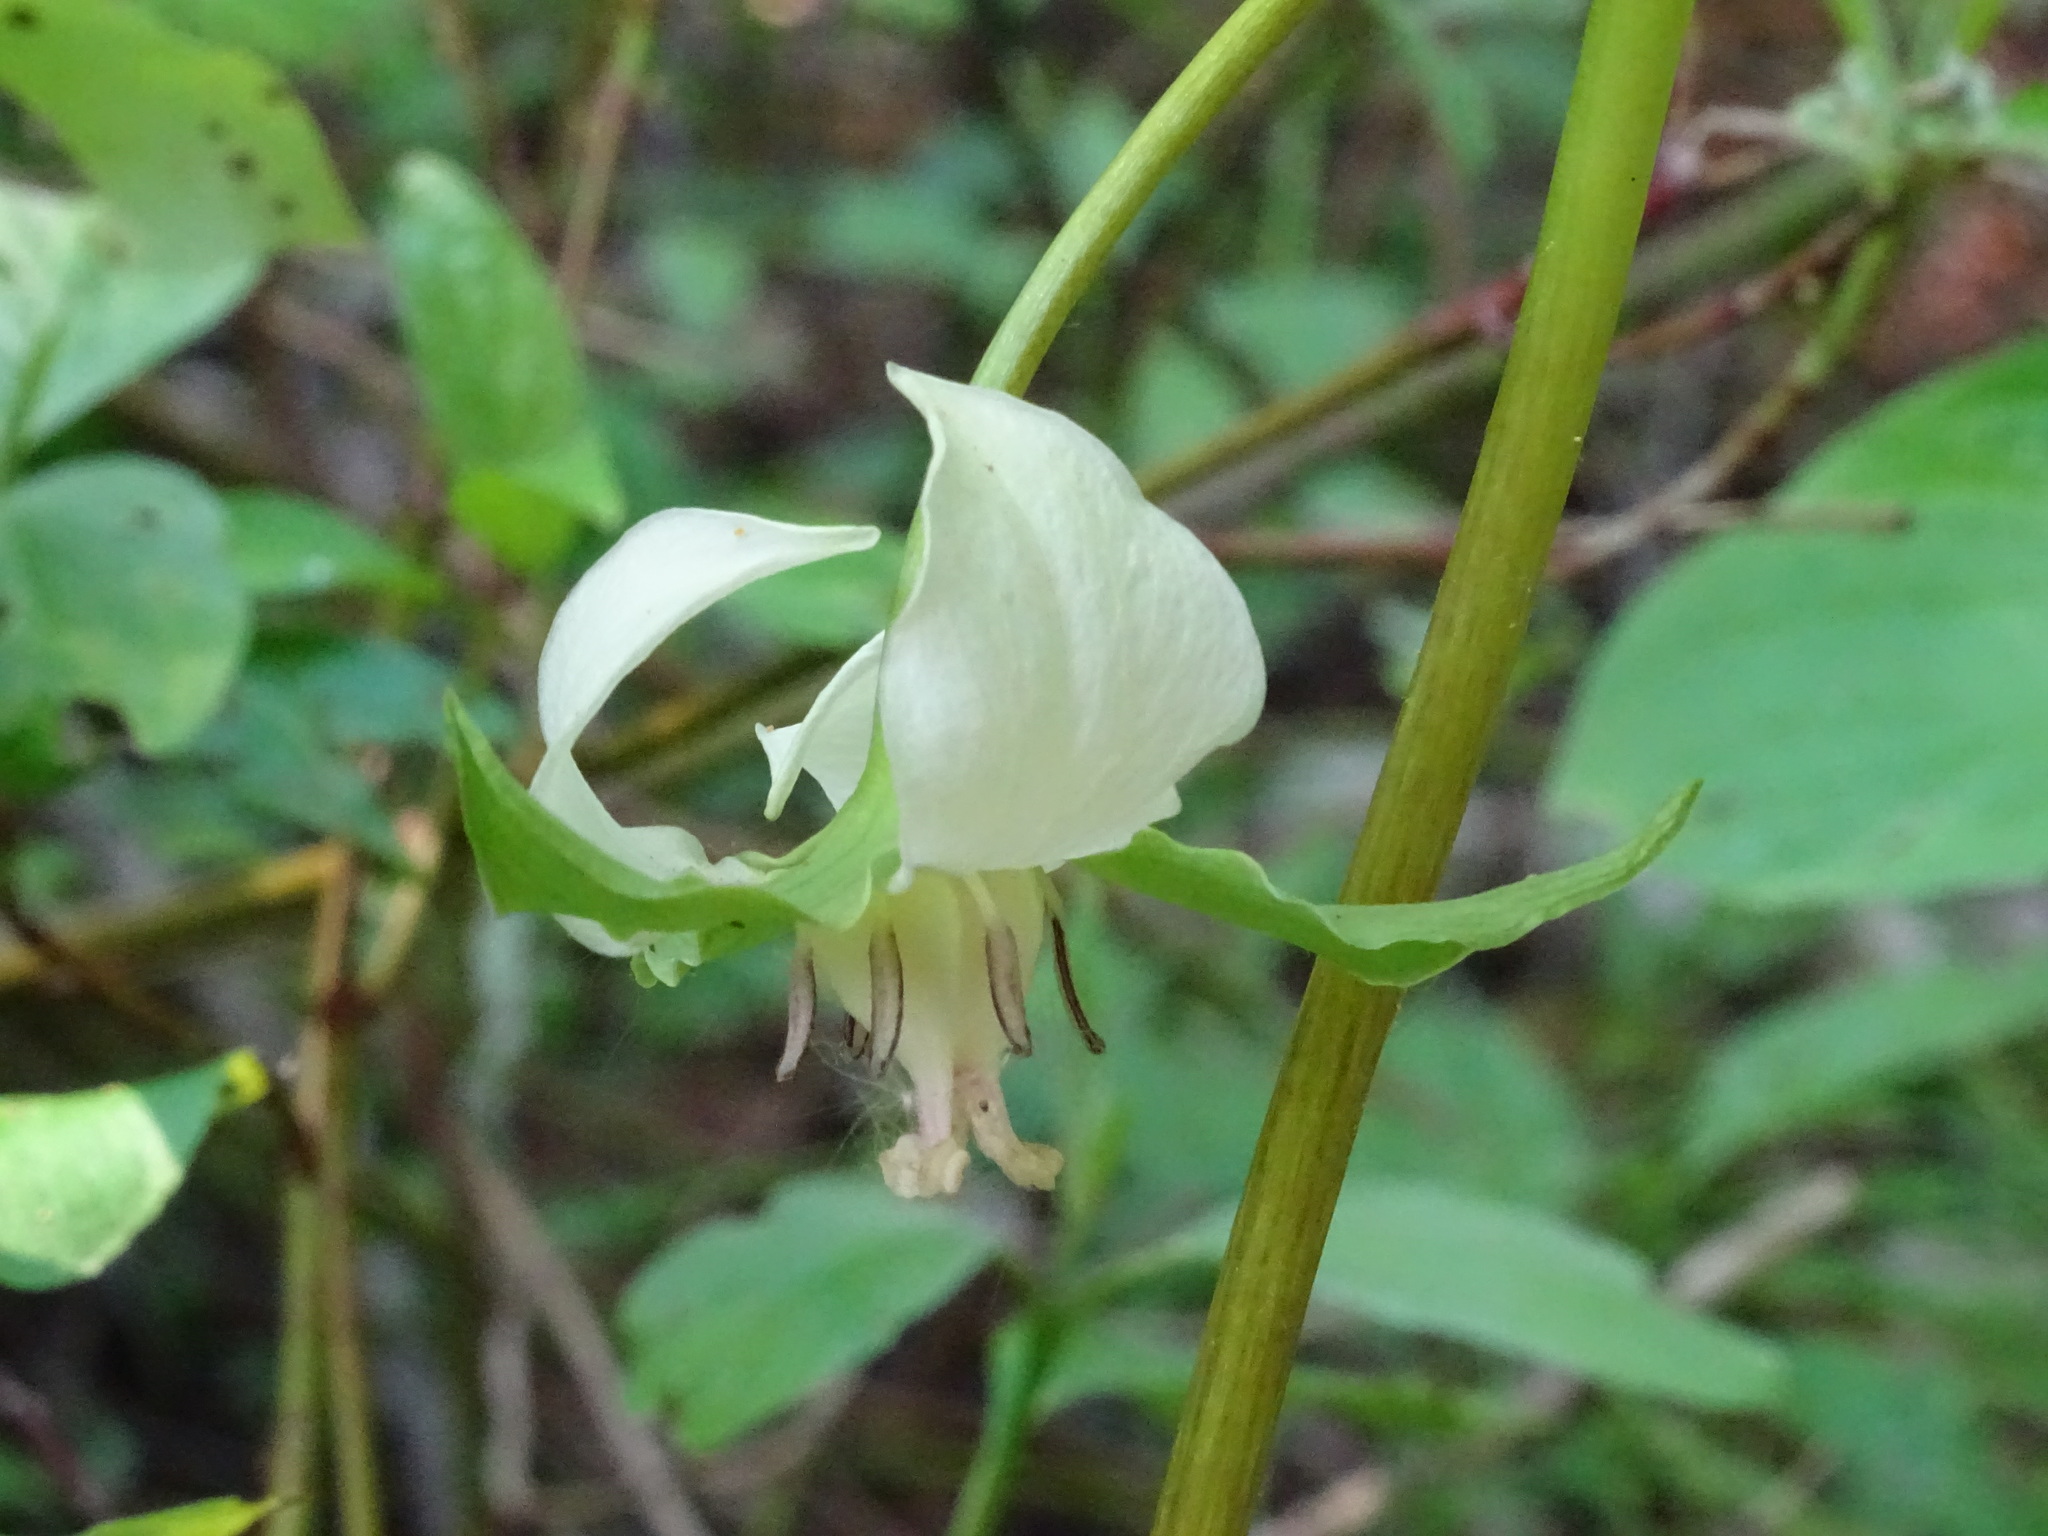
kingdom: Plantae
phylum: Tracheophyta
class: Liliopsida
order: Liliales
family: Melanthiaceae
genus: Trillium
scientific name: Trillium cernuum
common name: Nodding trillium
